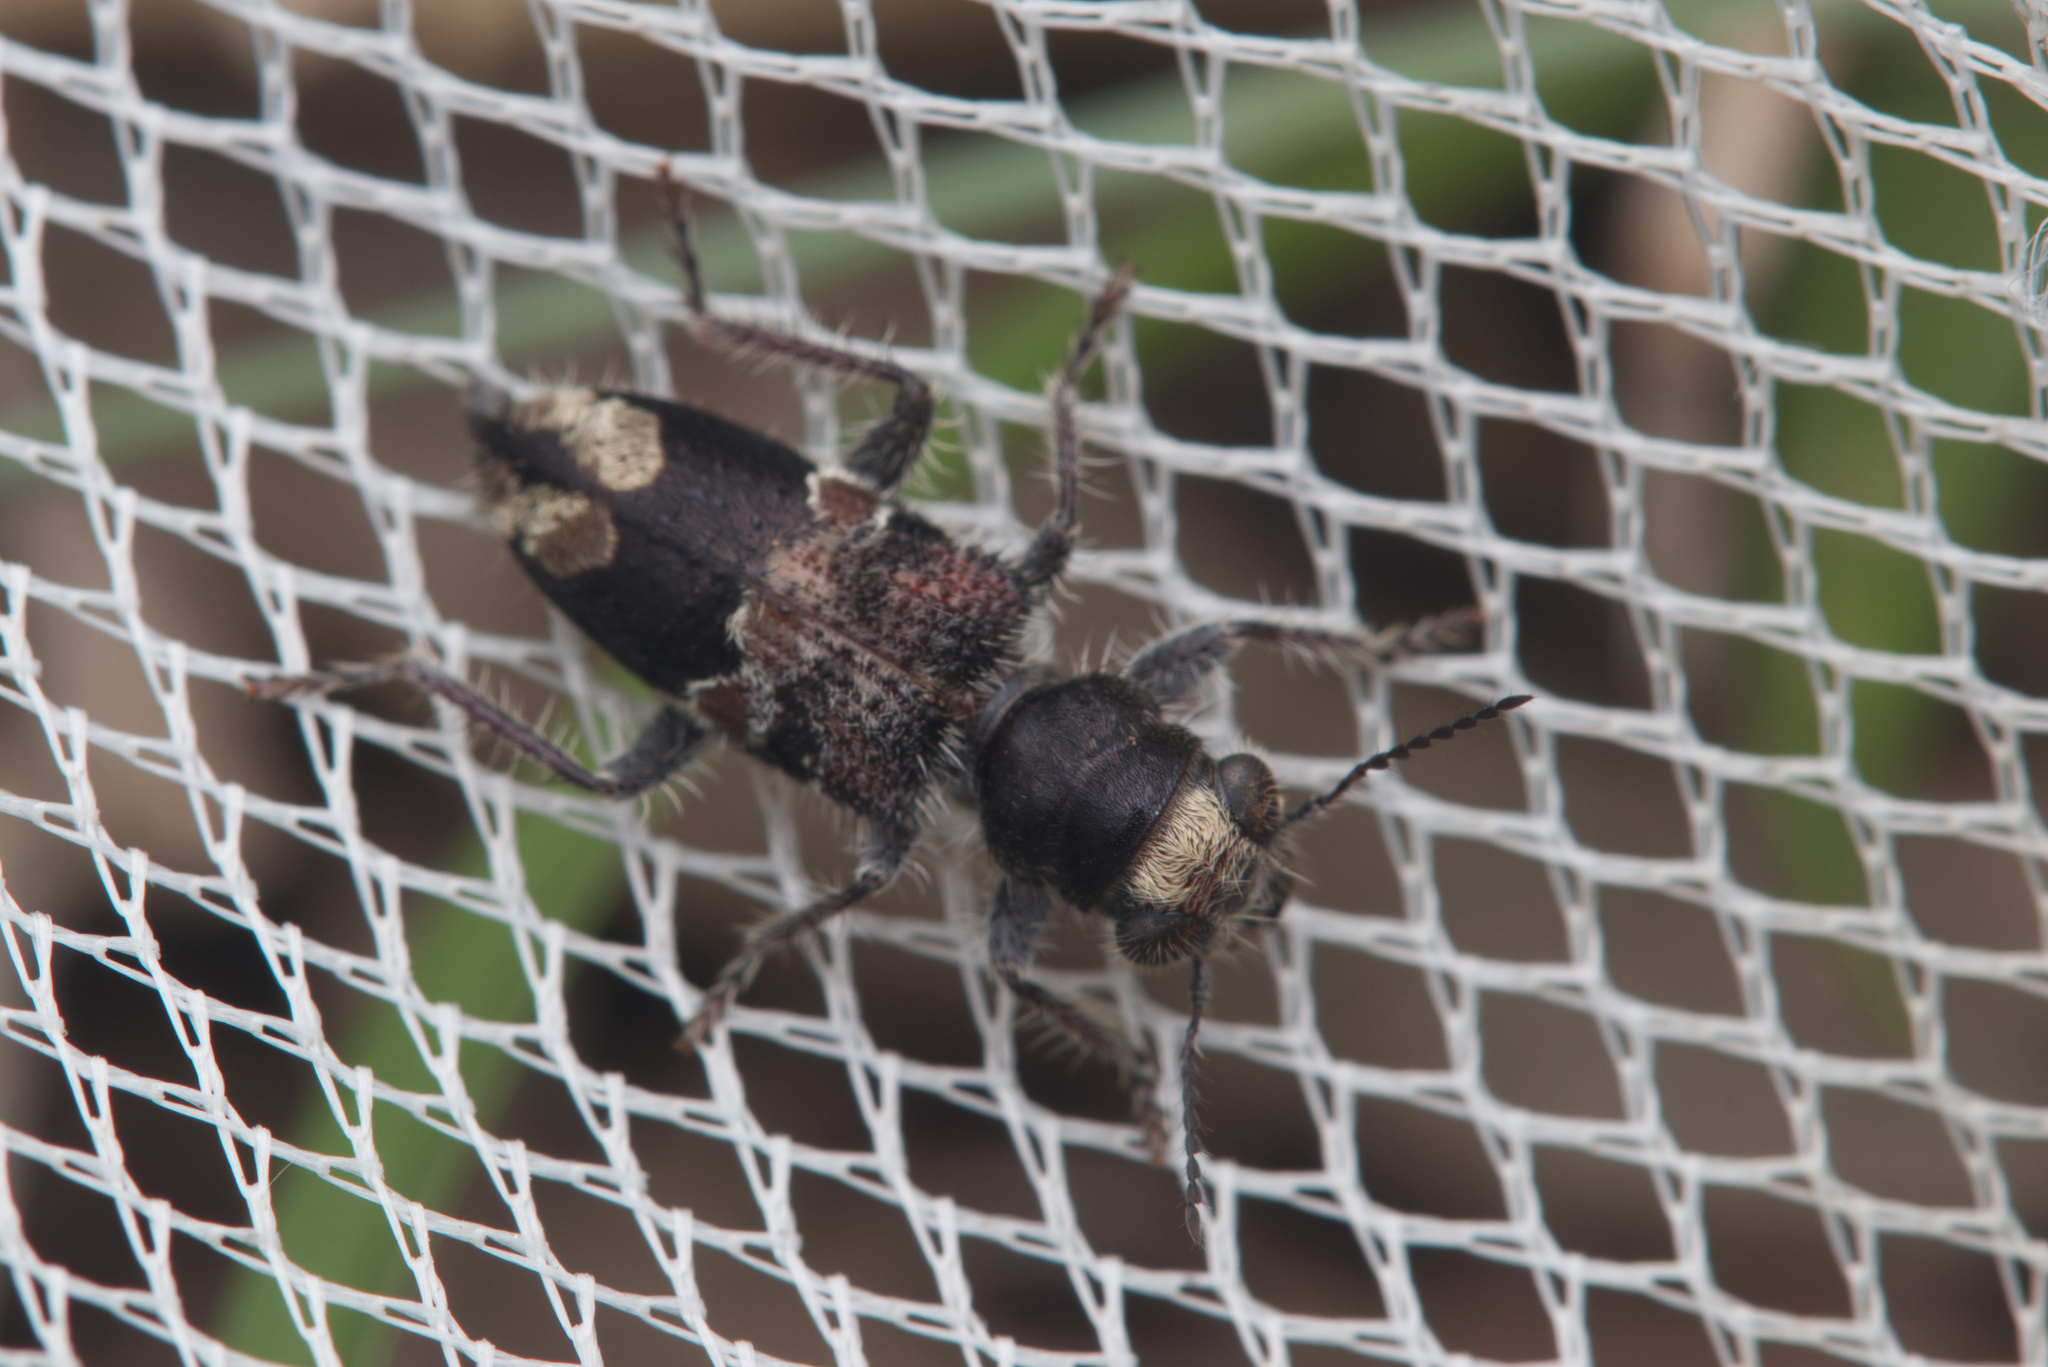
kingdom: Animalia
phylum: Arthropoda
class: Insecta
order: Coleoptera
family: Cleridae
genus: Clerus
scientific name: Clerus
